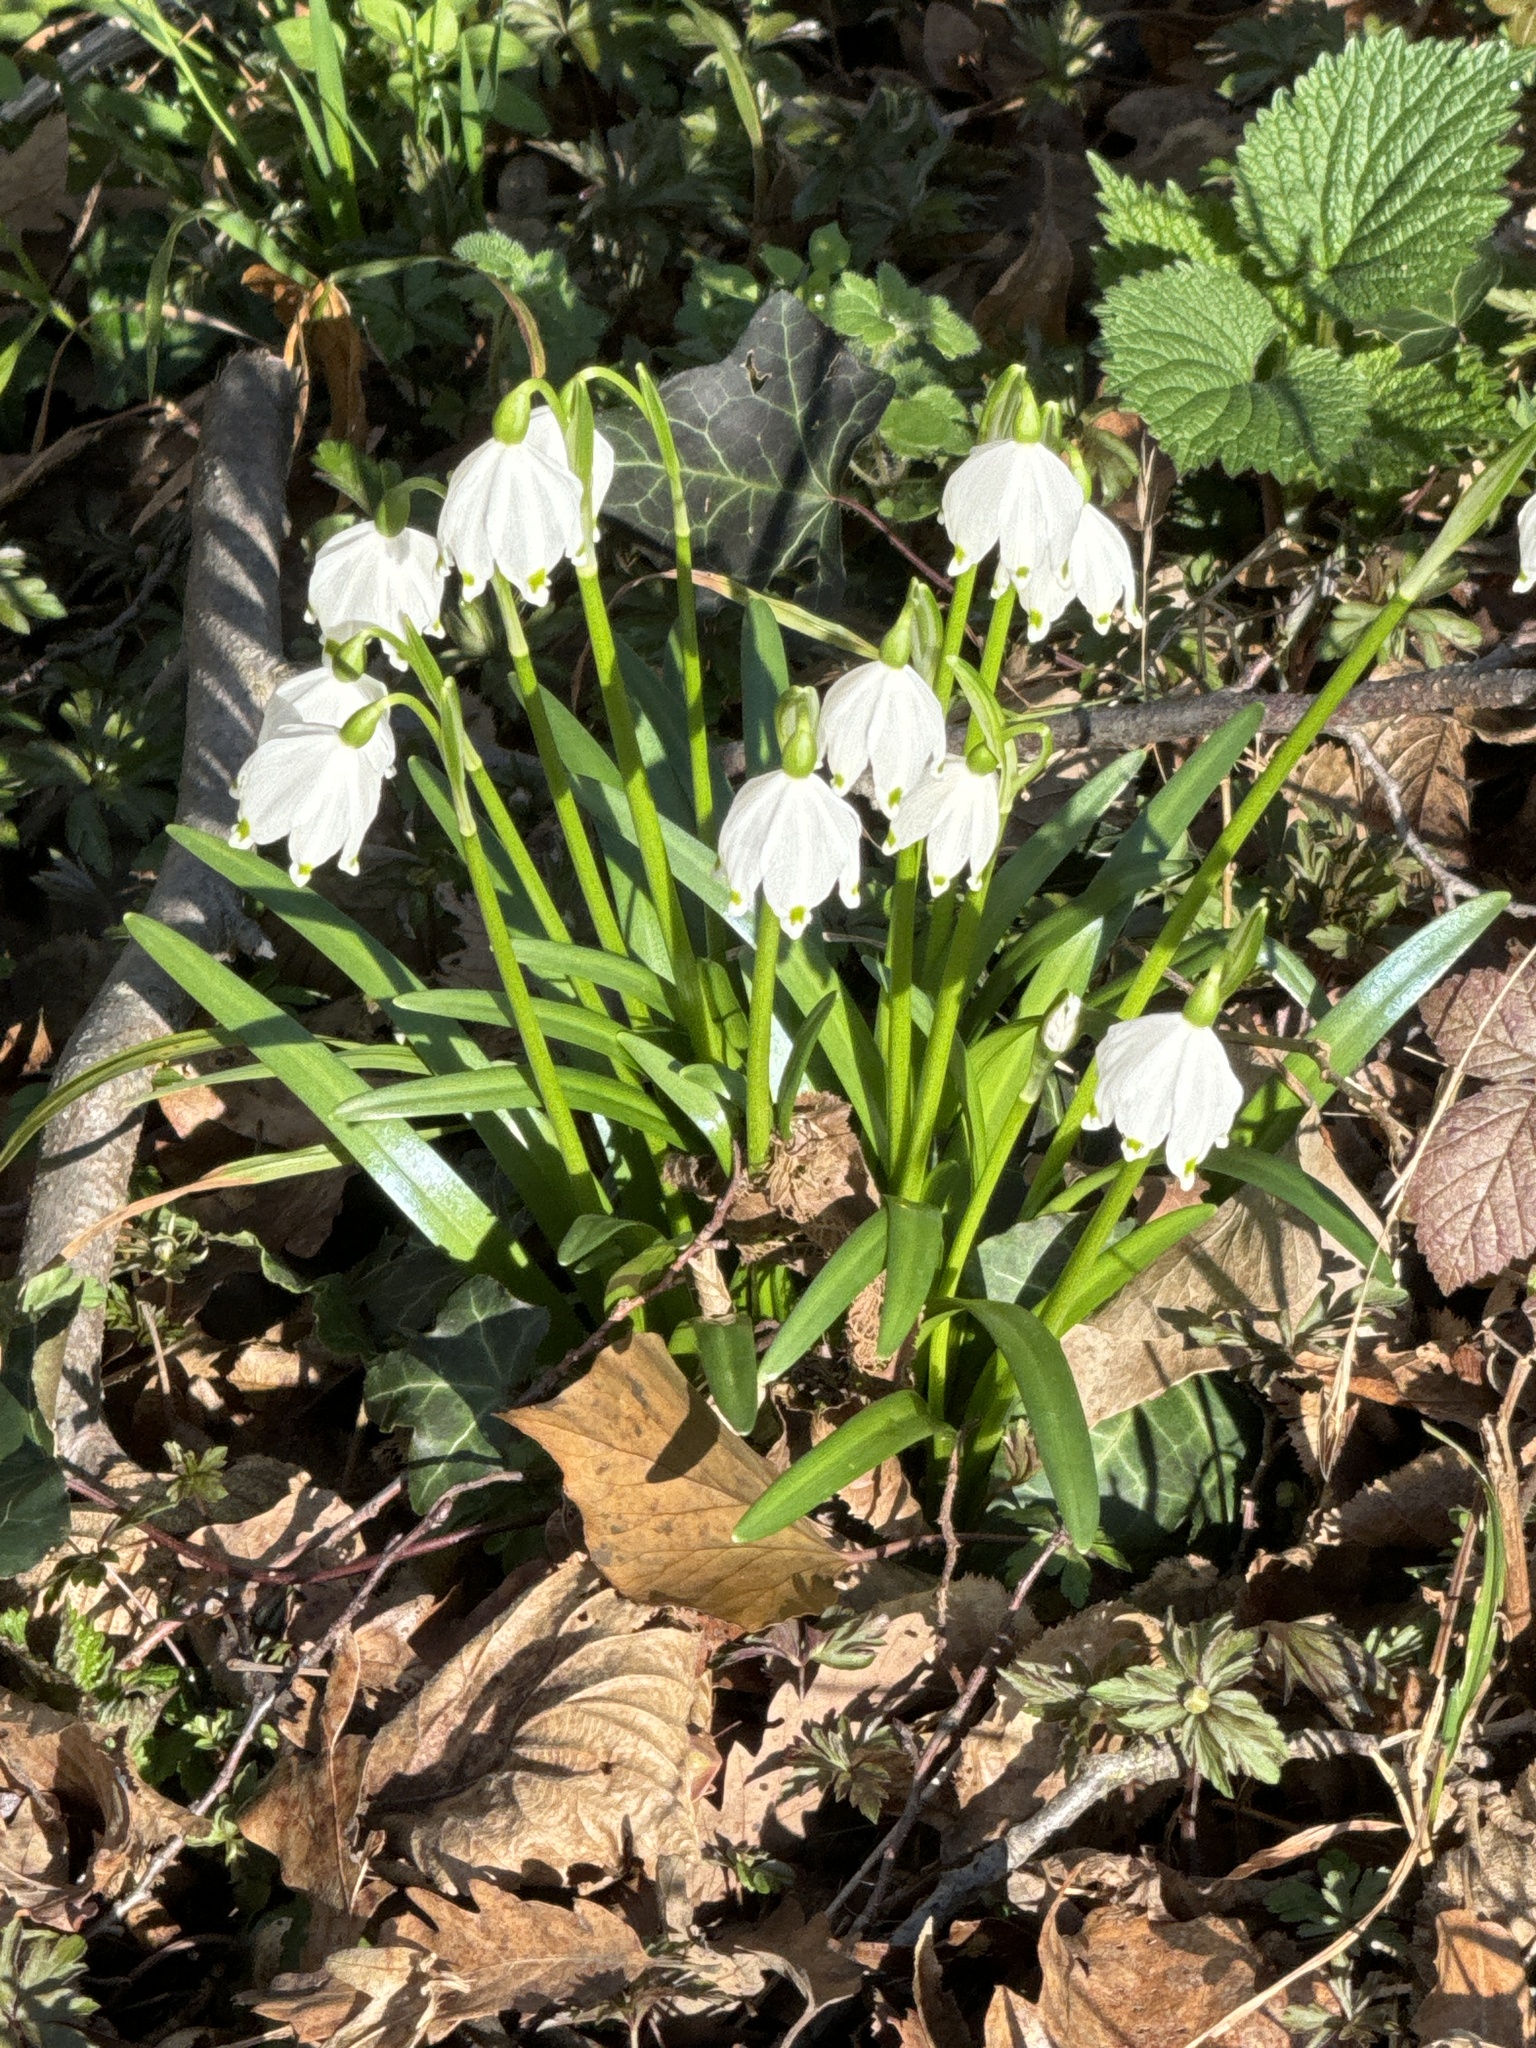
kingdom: Plantae
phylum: Tracheophyta
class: Liliopsida
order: Asparagales
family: Amaryllidaceae
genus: Leucojum
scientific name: Leucojum vernum
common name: Spring snowflake
